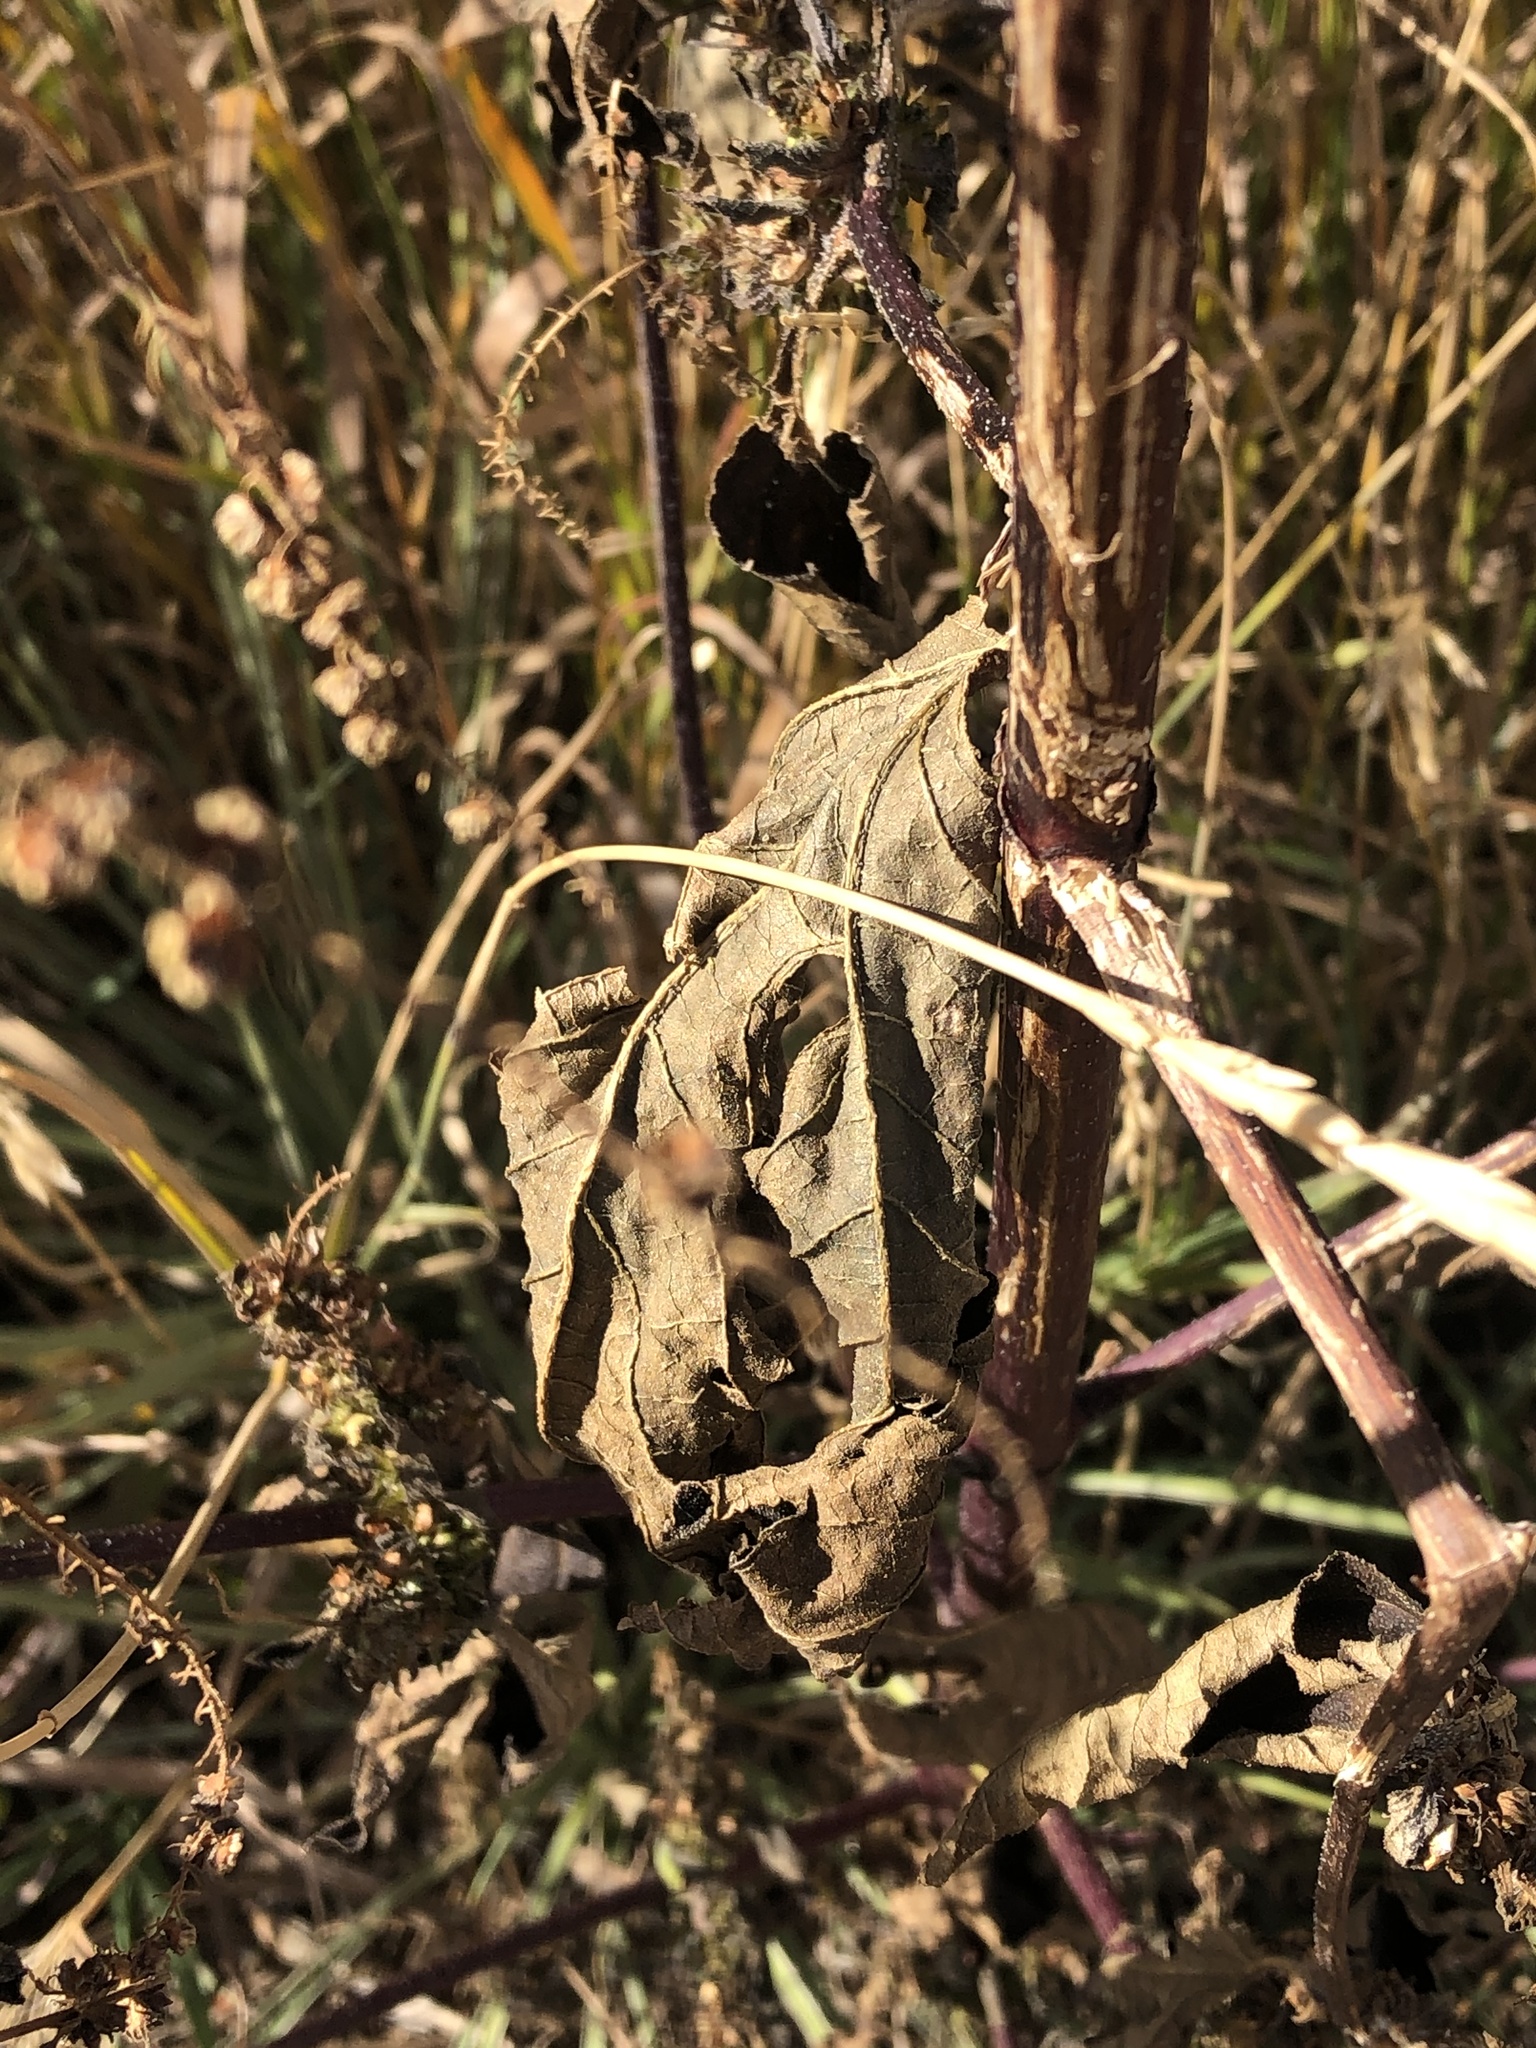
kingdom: Plantae
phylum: Tracheophyta
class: Magnoliopsida
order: Asterales
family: Asteraceae
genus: Ambrosia
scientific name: Ambrosia trifida
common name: Giant ragweed
